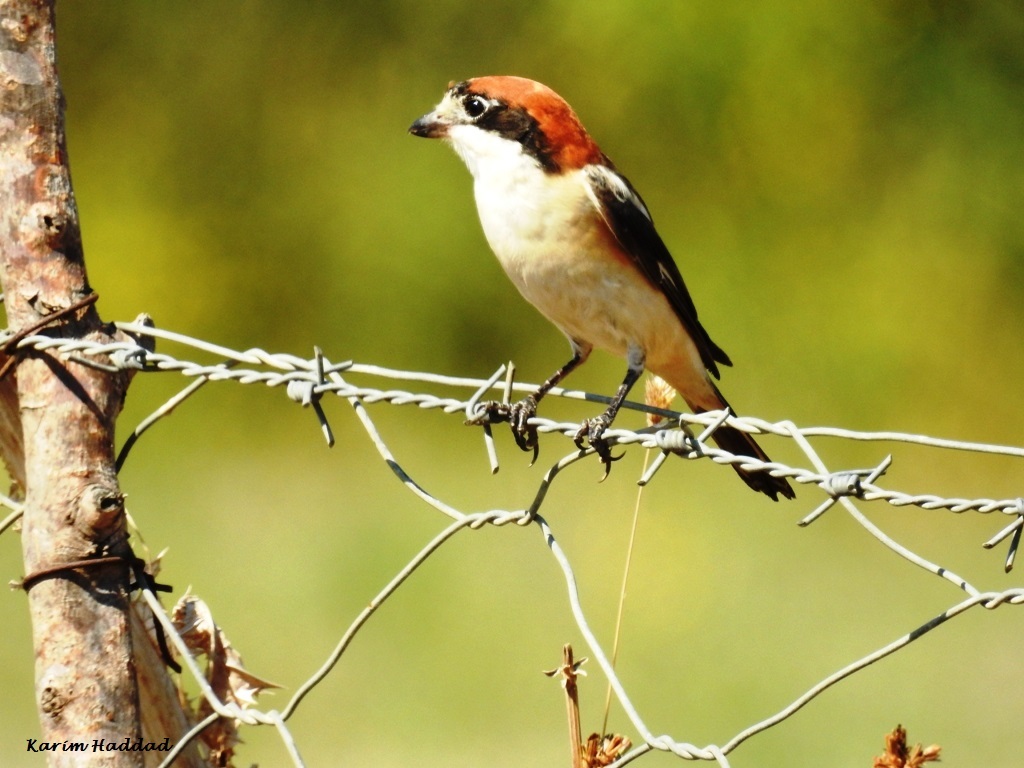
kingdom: Animalia
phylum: Chordata
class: Aves
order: Passeriformes
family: Laniidae
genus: Lanius
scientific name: Lanius senator
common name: Woodchat shrike
